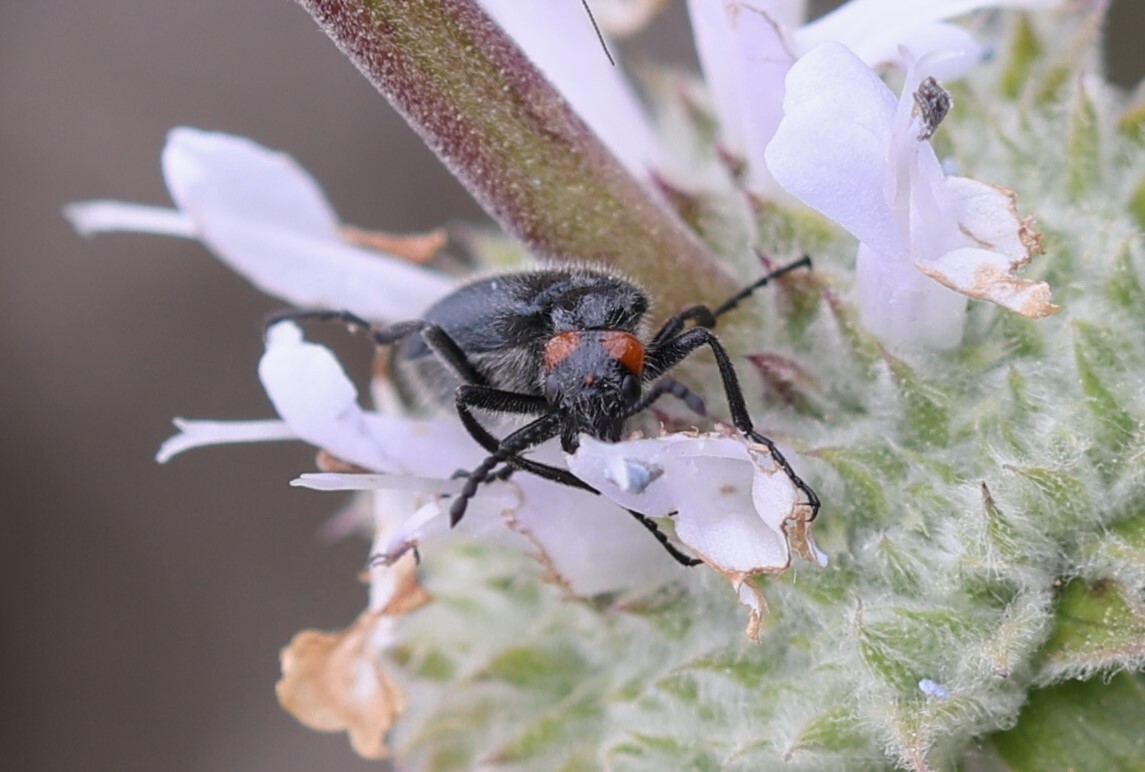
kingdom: Animalia
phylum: Arthropoda
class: Insecta
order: Coleoptera
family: Meloidae
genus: Lytta
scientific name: Lytta auriculata
